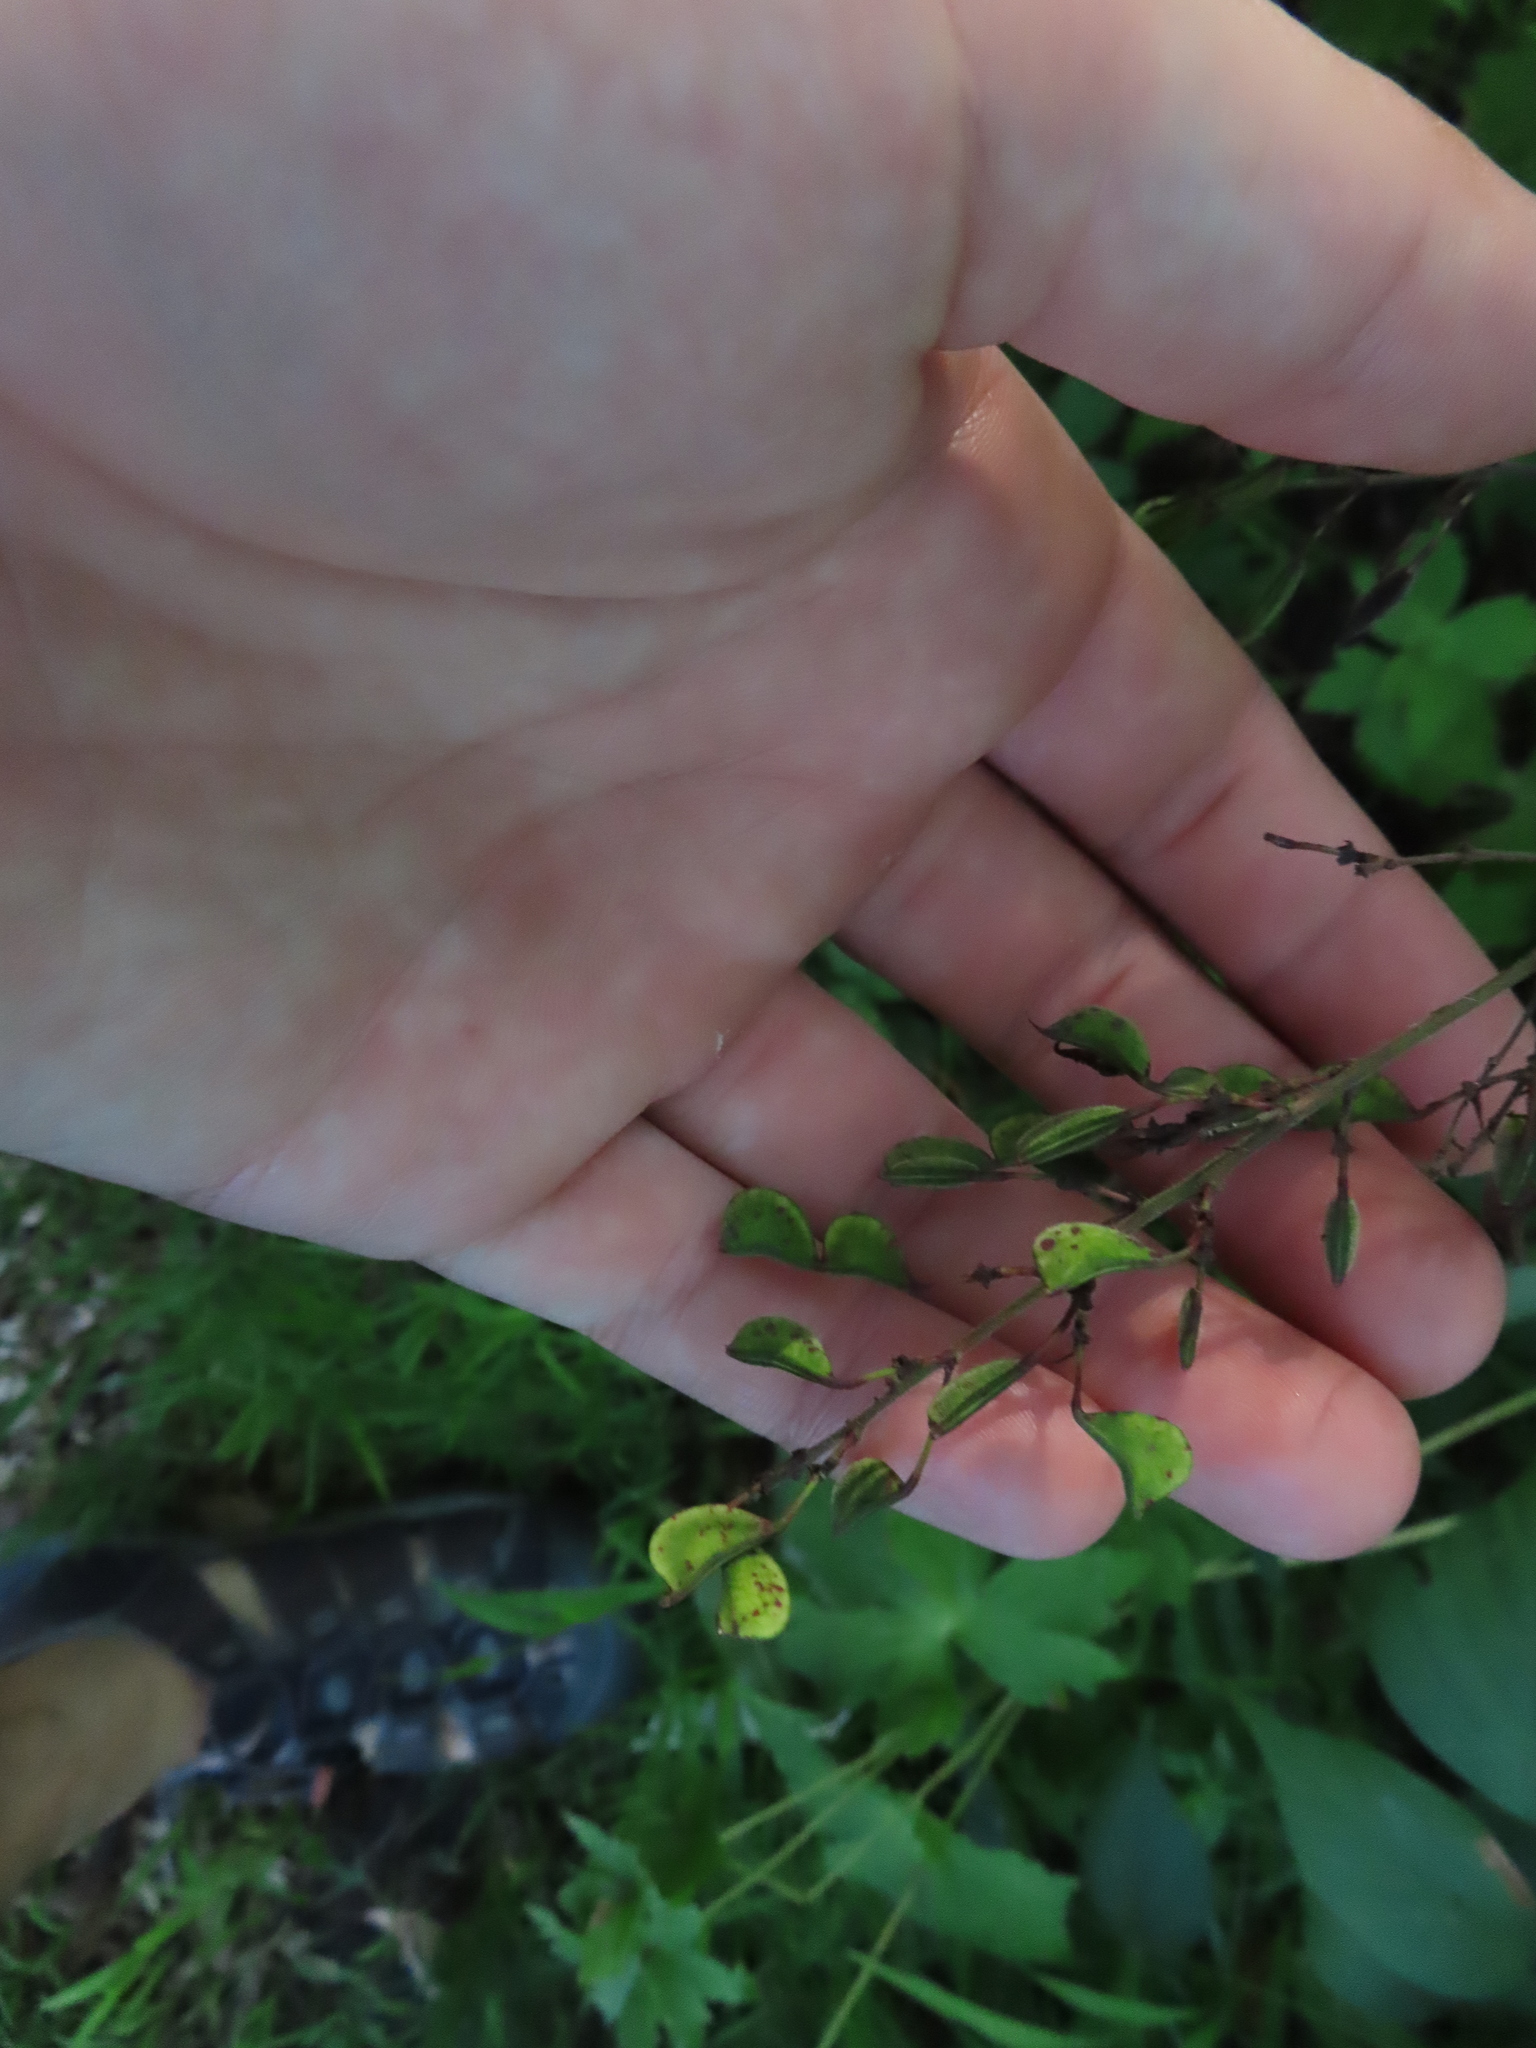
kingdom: Plantae
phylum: Tracheophyta
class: Magnoliopsida
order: Fabales
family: Fabaceae
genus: Hylodesmum
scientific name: Hylodesmum glutinosum
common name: Clustered-leaved tick-trefoil
